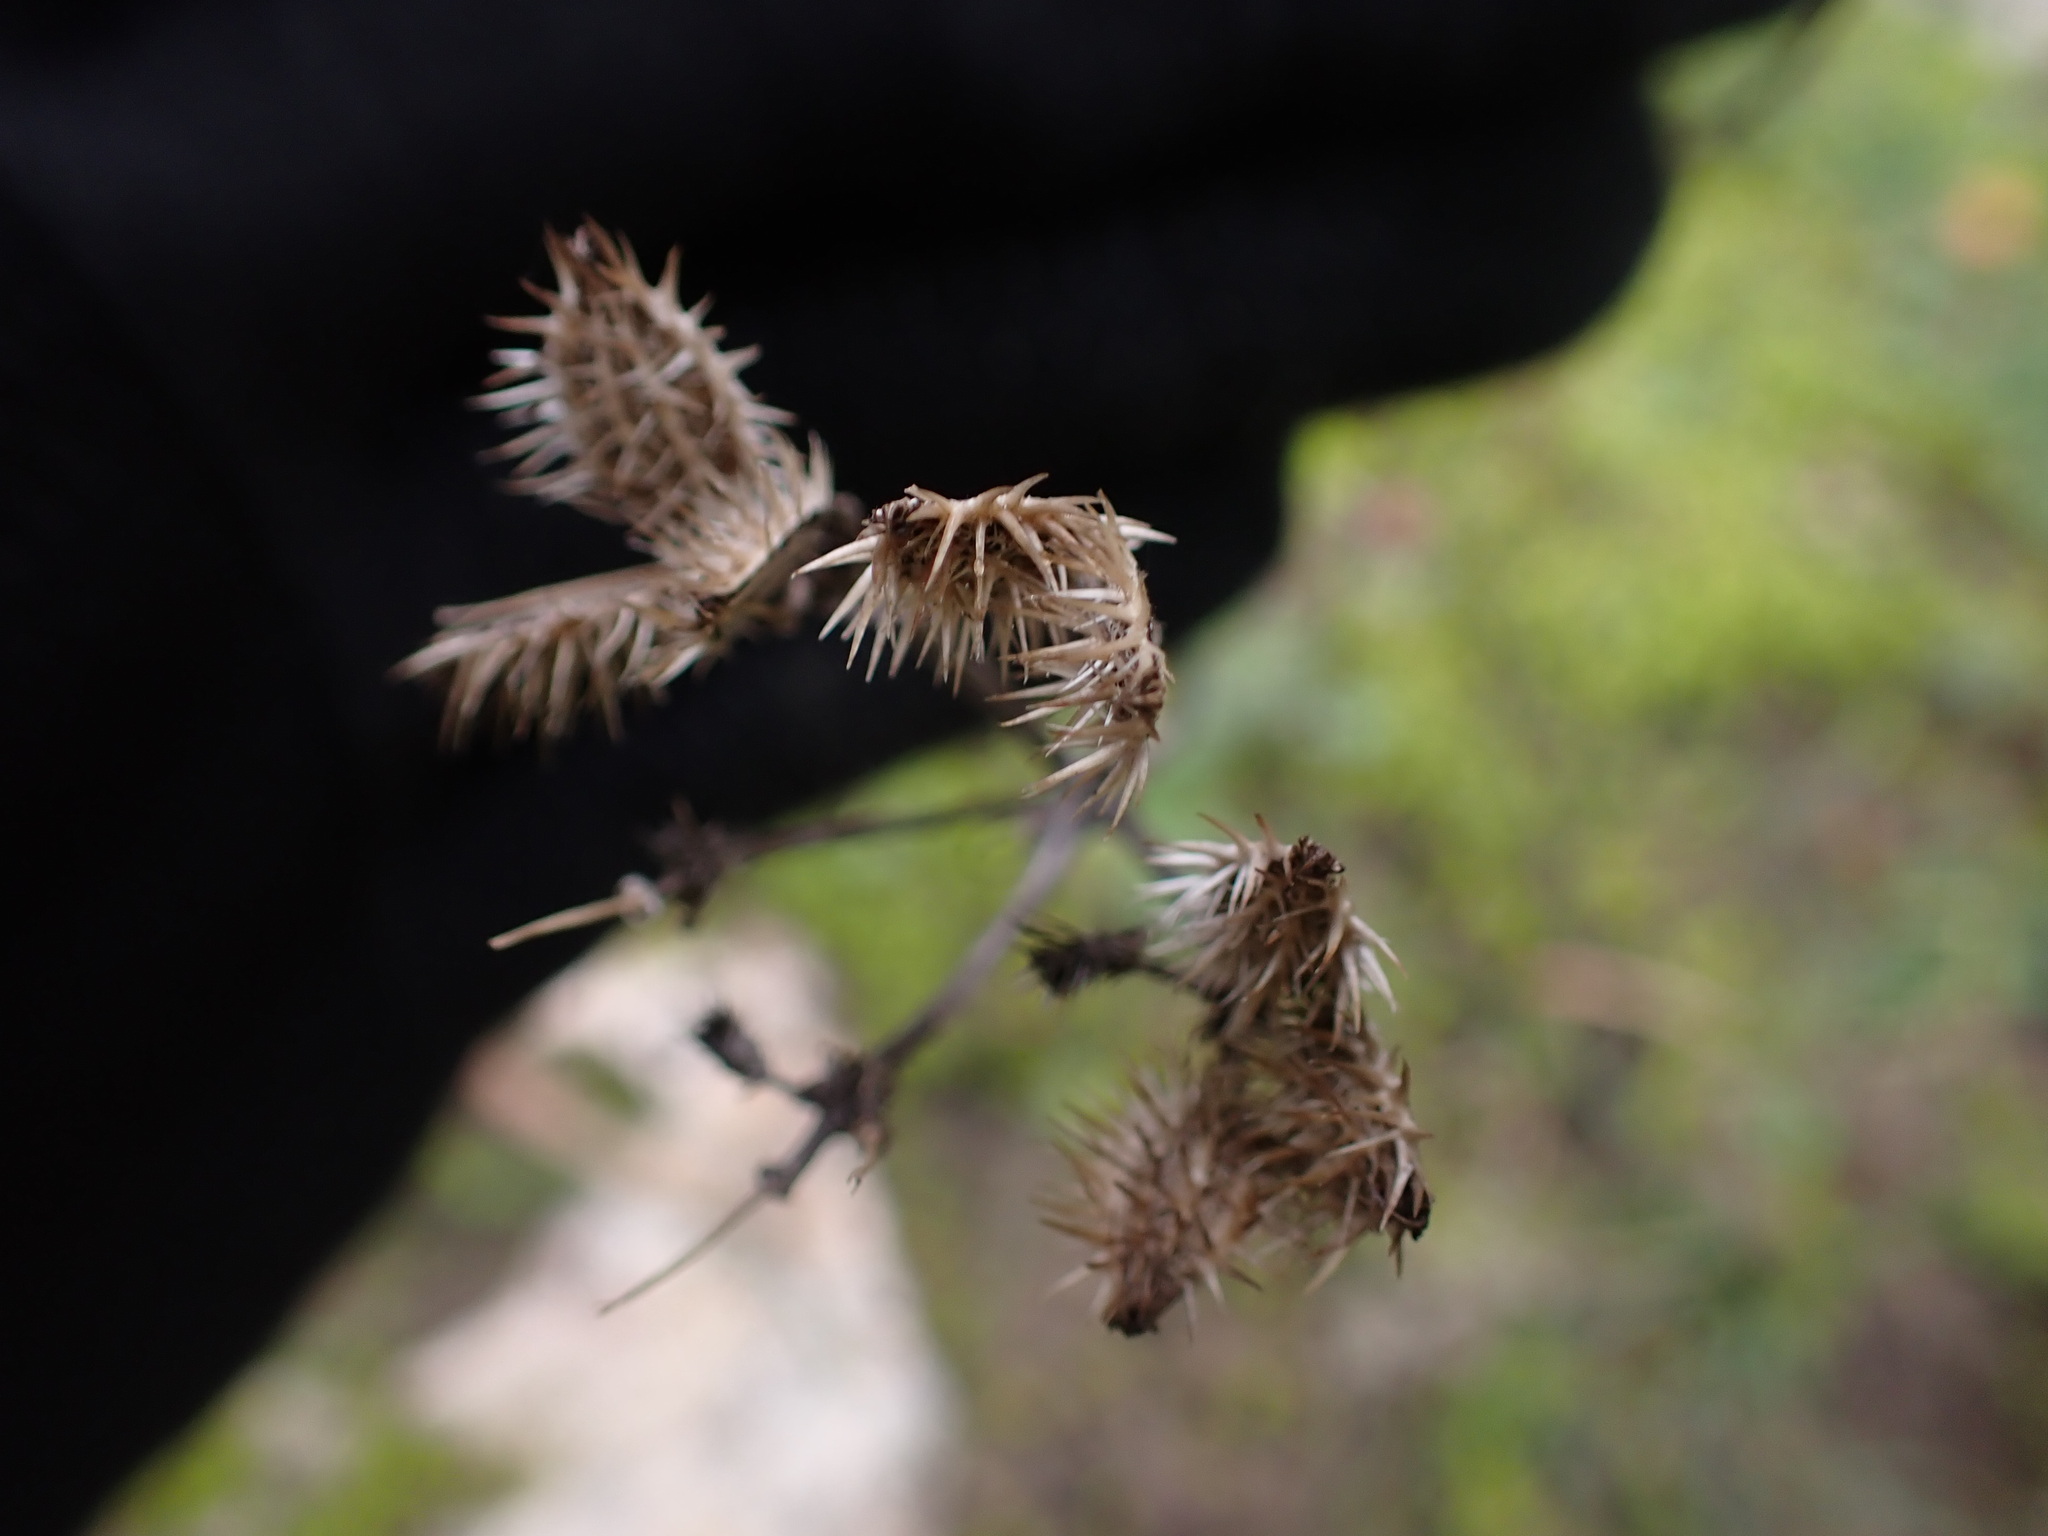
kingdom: Plantae
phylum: Tracheophyta
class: Magnoliopsida
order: Apiales
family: Apiaceae
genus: Orlaya
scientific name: Orlaya grandiflora
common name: White lace flower
